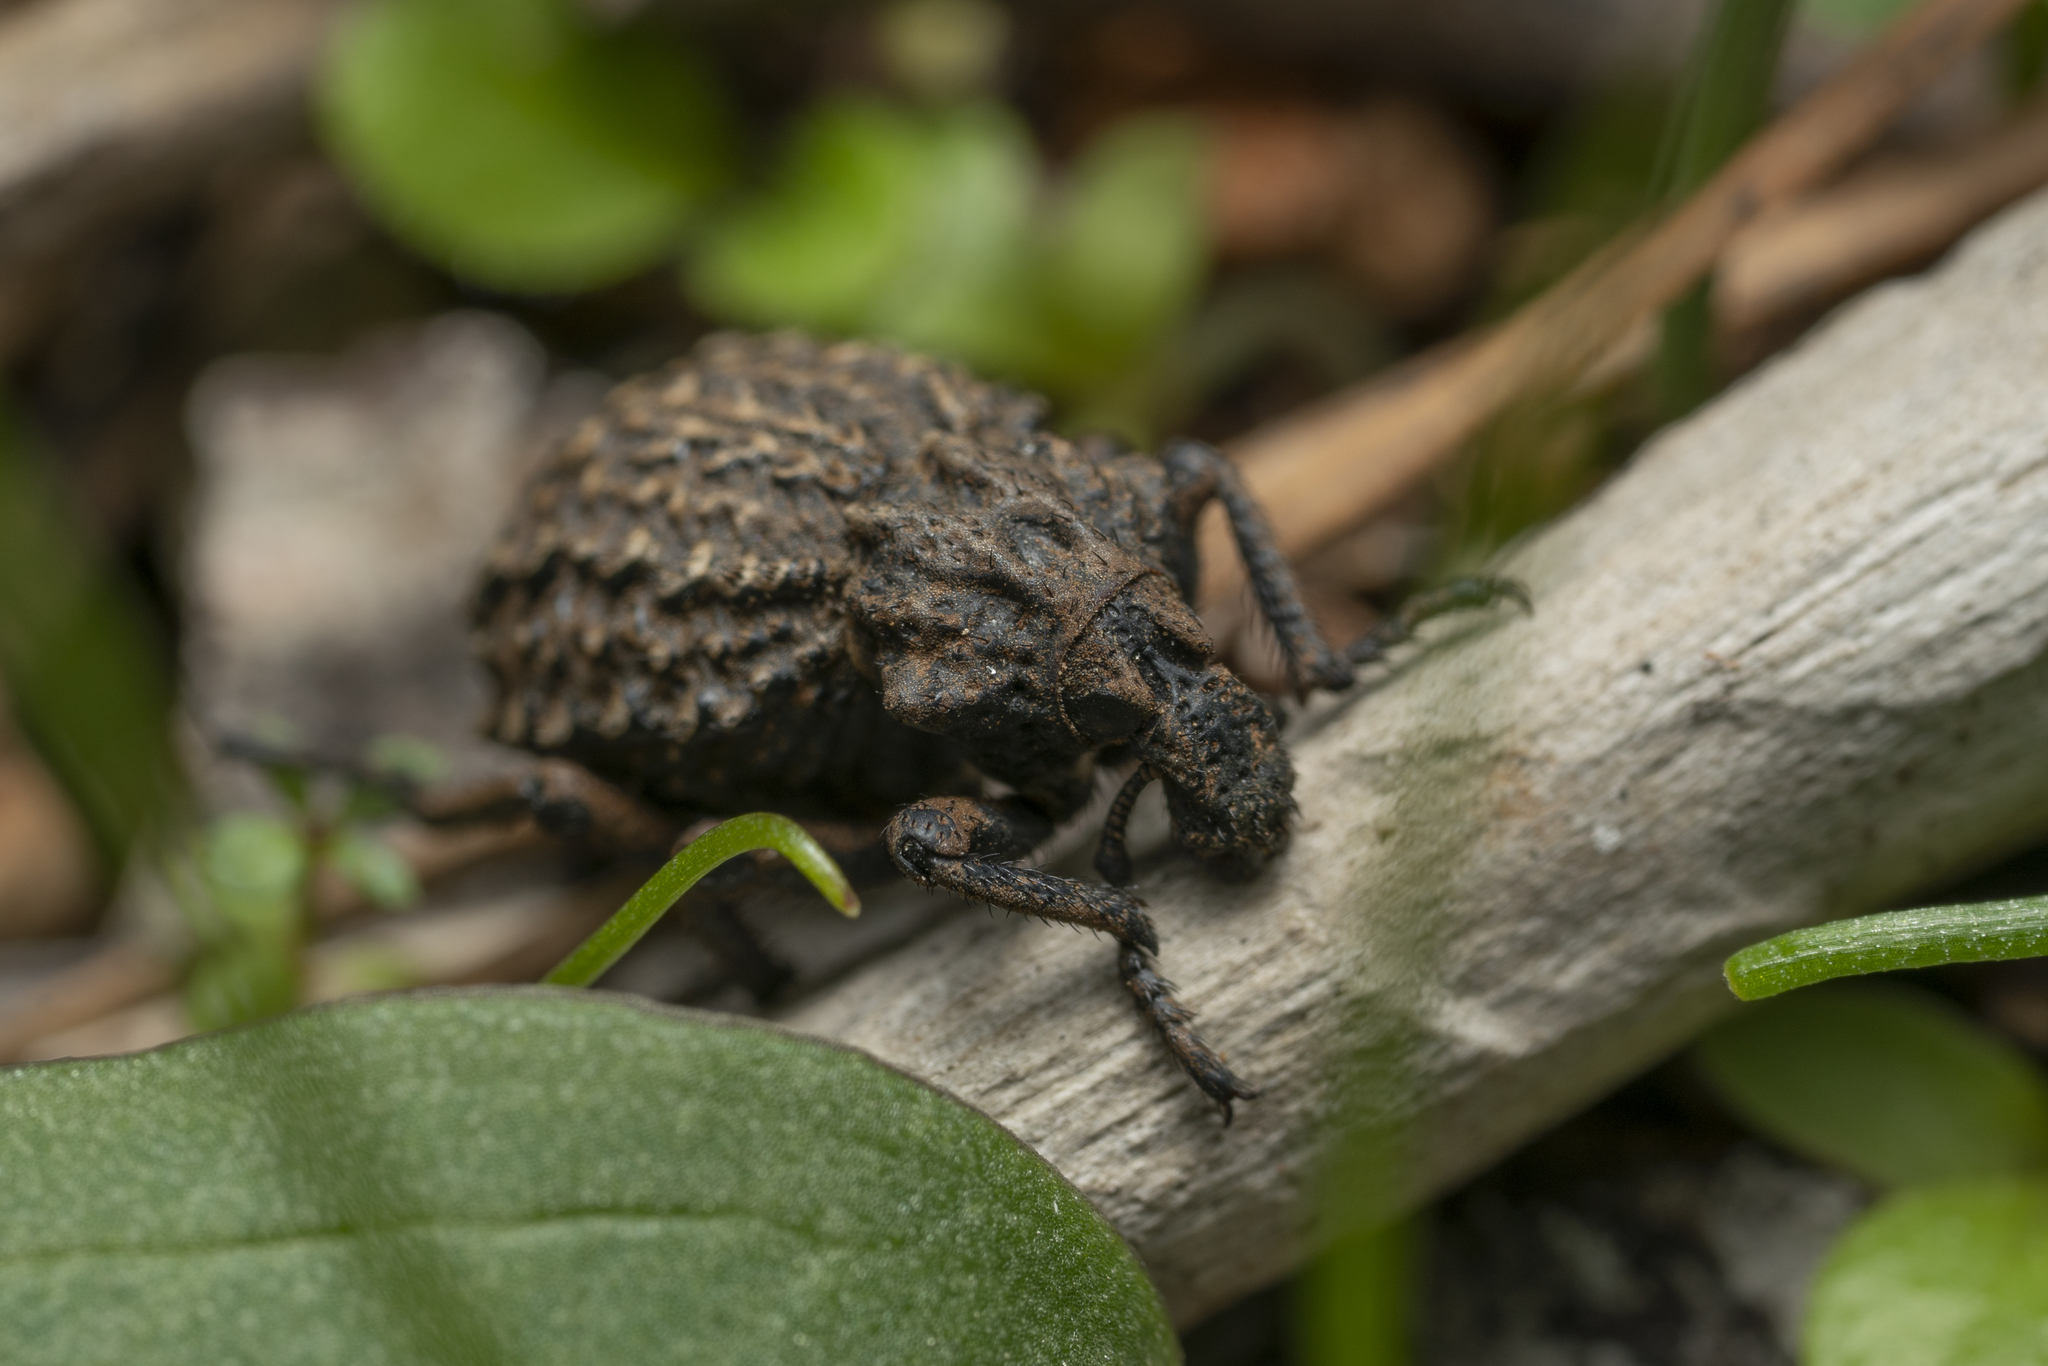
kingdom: Animalia
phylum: Arthropoda
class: Insecta
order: Coleoptera
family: Brachyceridae
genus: Brachycerus
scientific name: Brachycerus argillaceus
